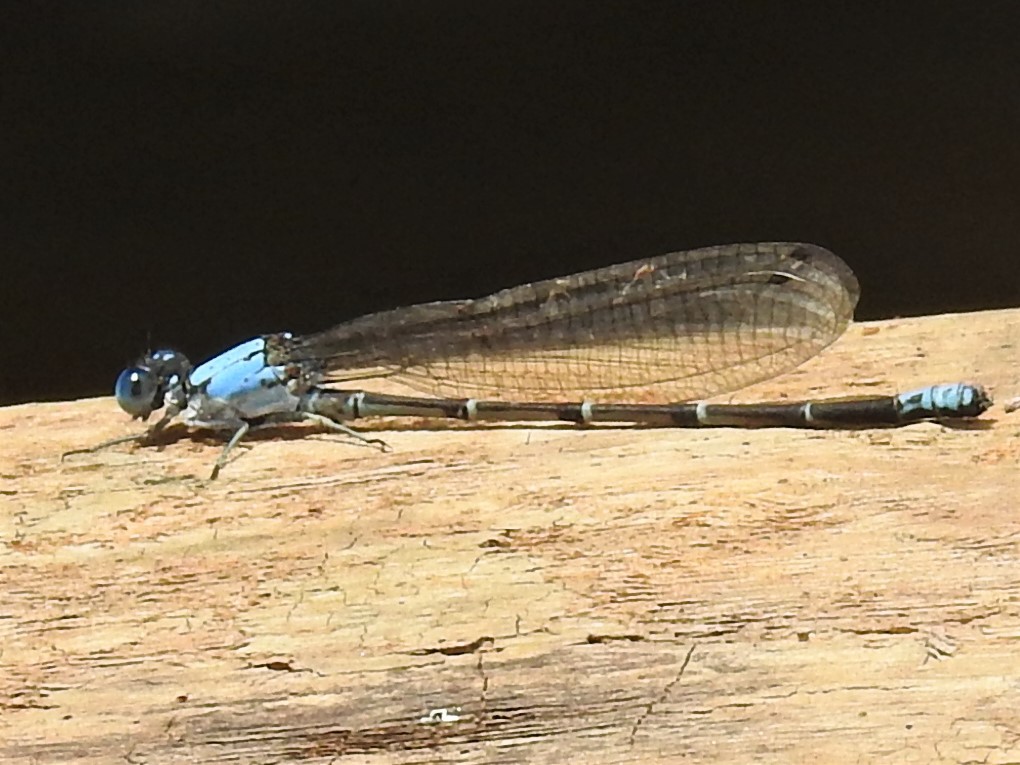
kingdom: Animalia
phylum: Arthropoda
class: Insecta
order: Odonata
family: Coenagrionidae
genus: Argia
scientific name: Argia apicalis
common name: Blue-fronted dancer
